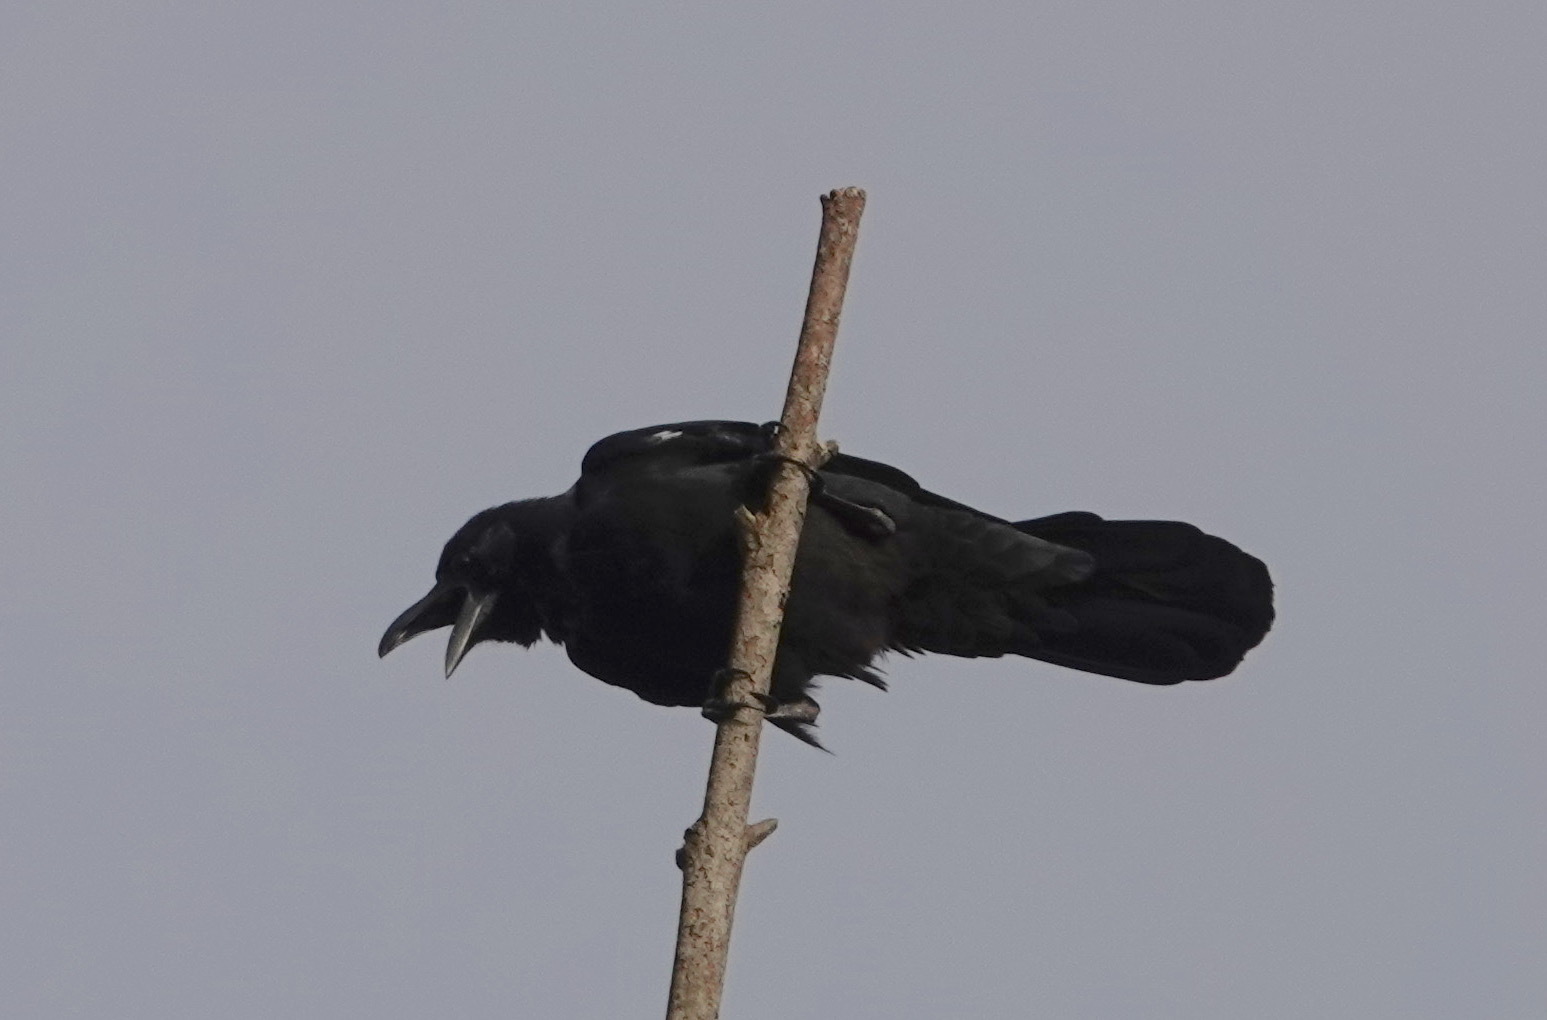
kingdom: Animalia
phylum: Chordata
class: Aves
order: Passeriformes
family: Corvidae
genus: Corvus
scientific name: Corvus macrorhynchos
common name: Large-billed crow
